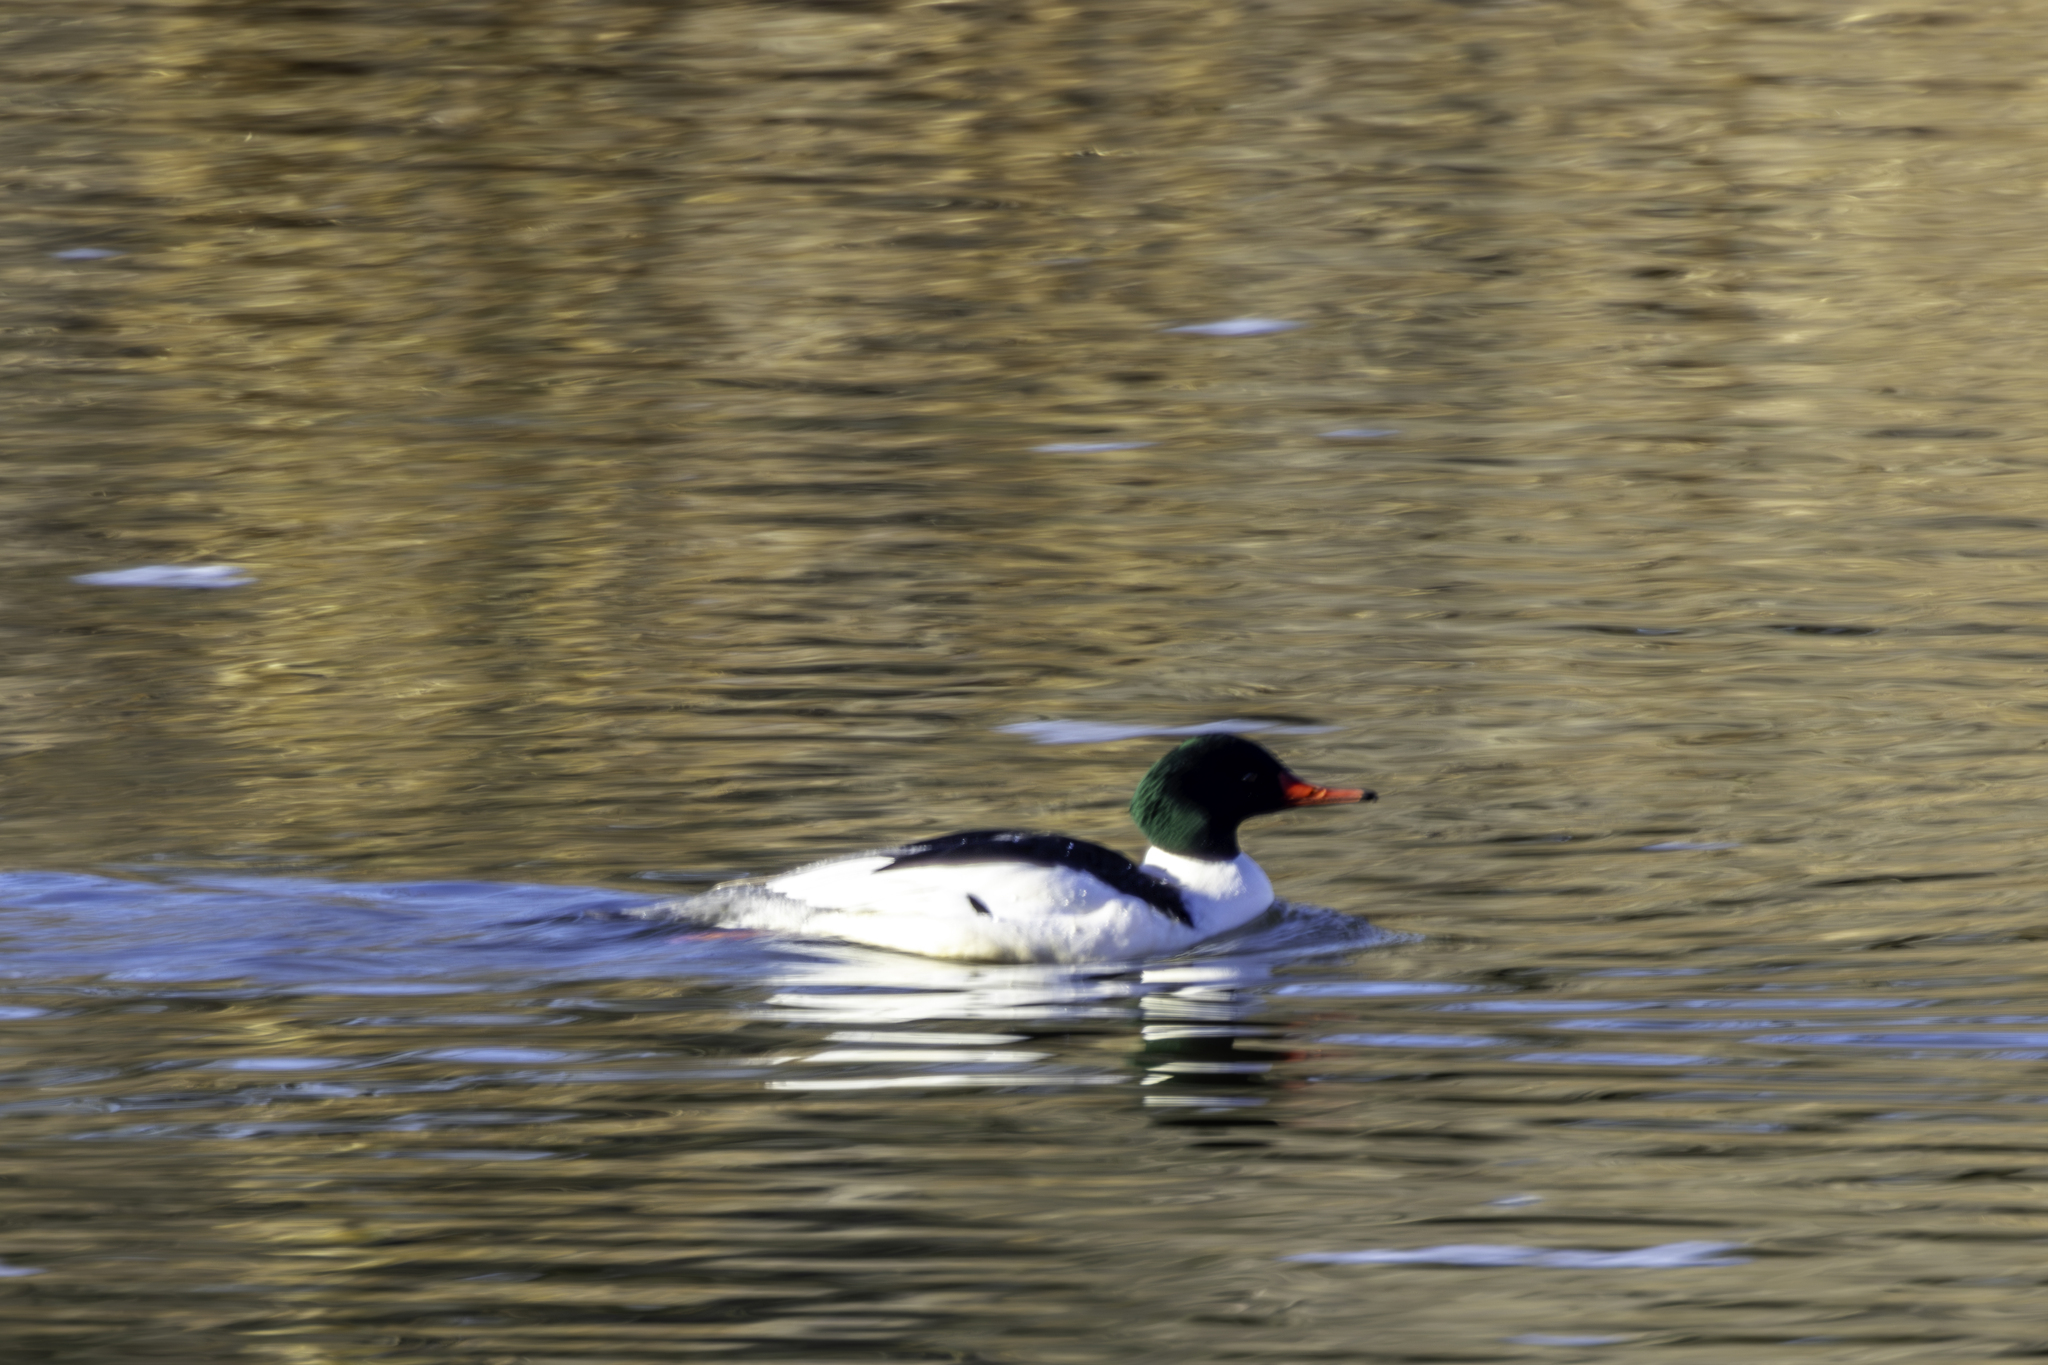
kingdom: Animalia
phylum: Chordata
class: Aves
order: Anseriformes
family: Anatidae
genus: Mergus
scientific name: Mergus merganser
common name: Common merganser
